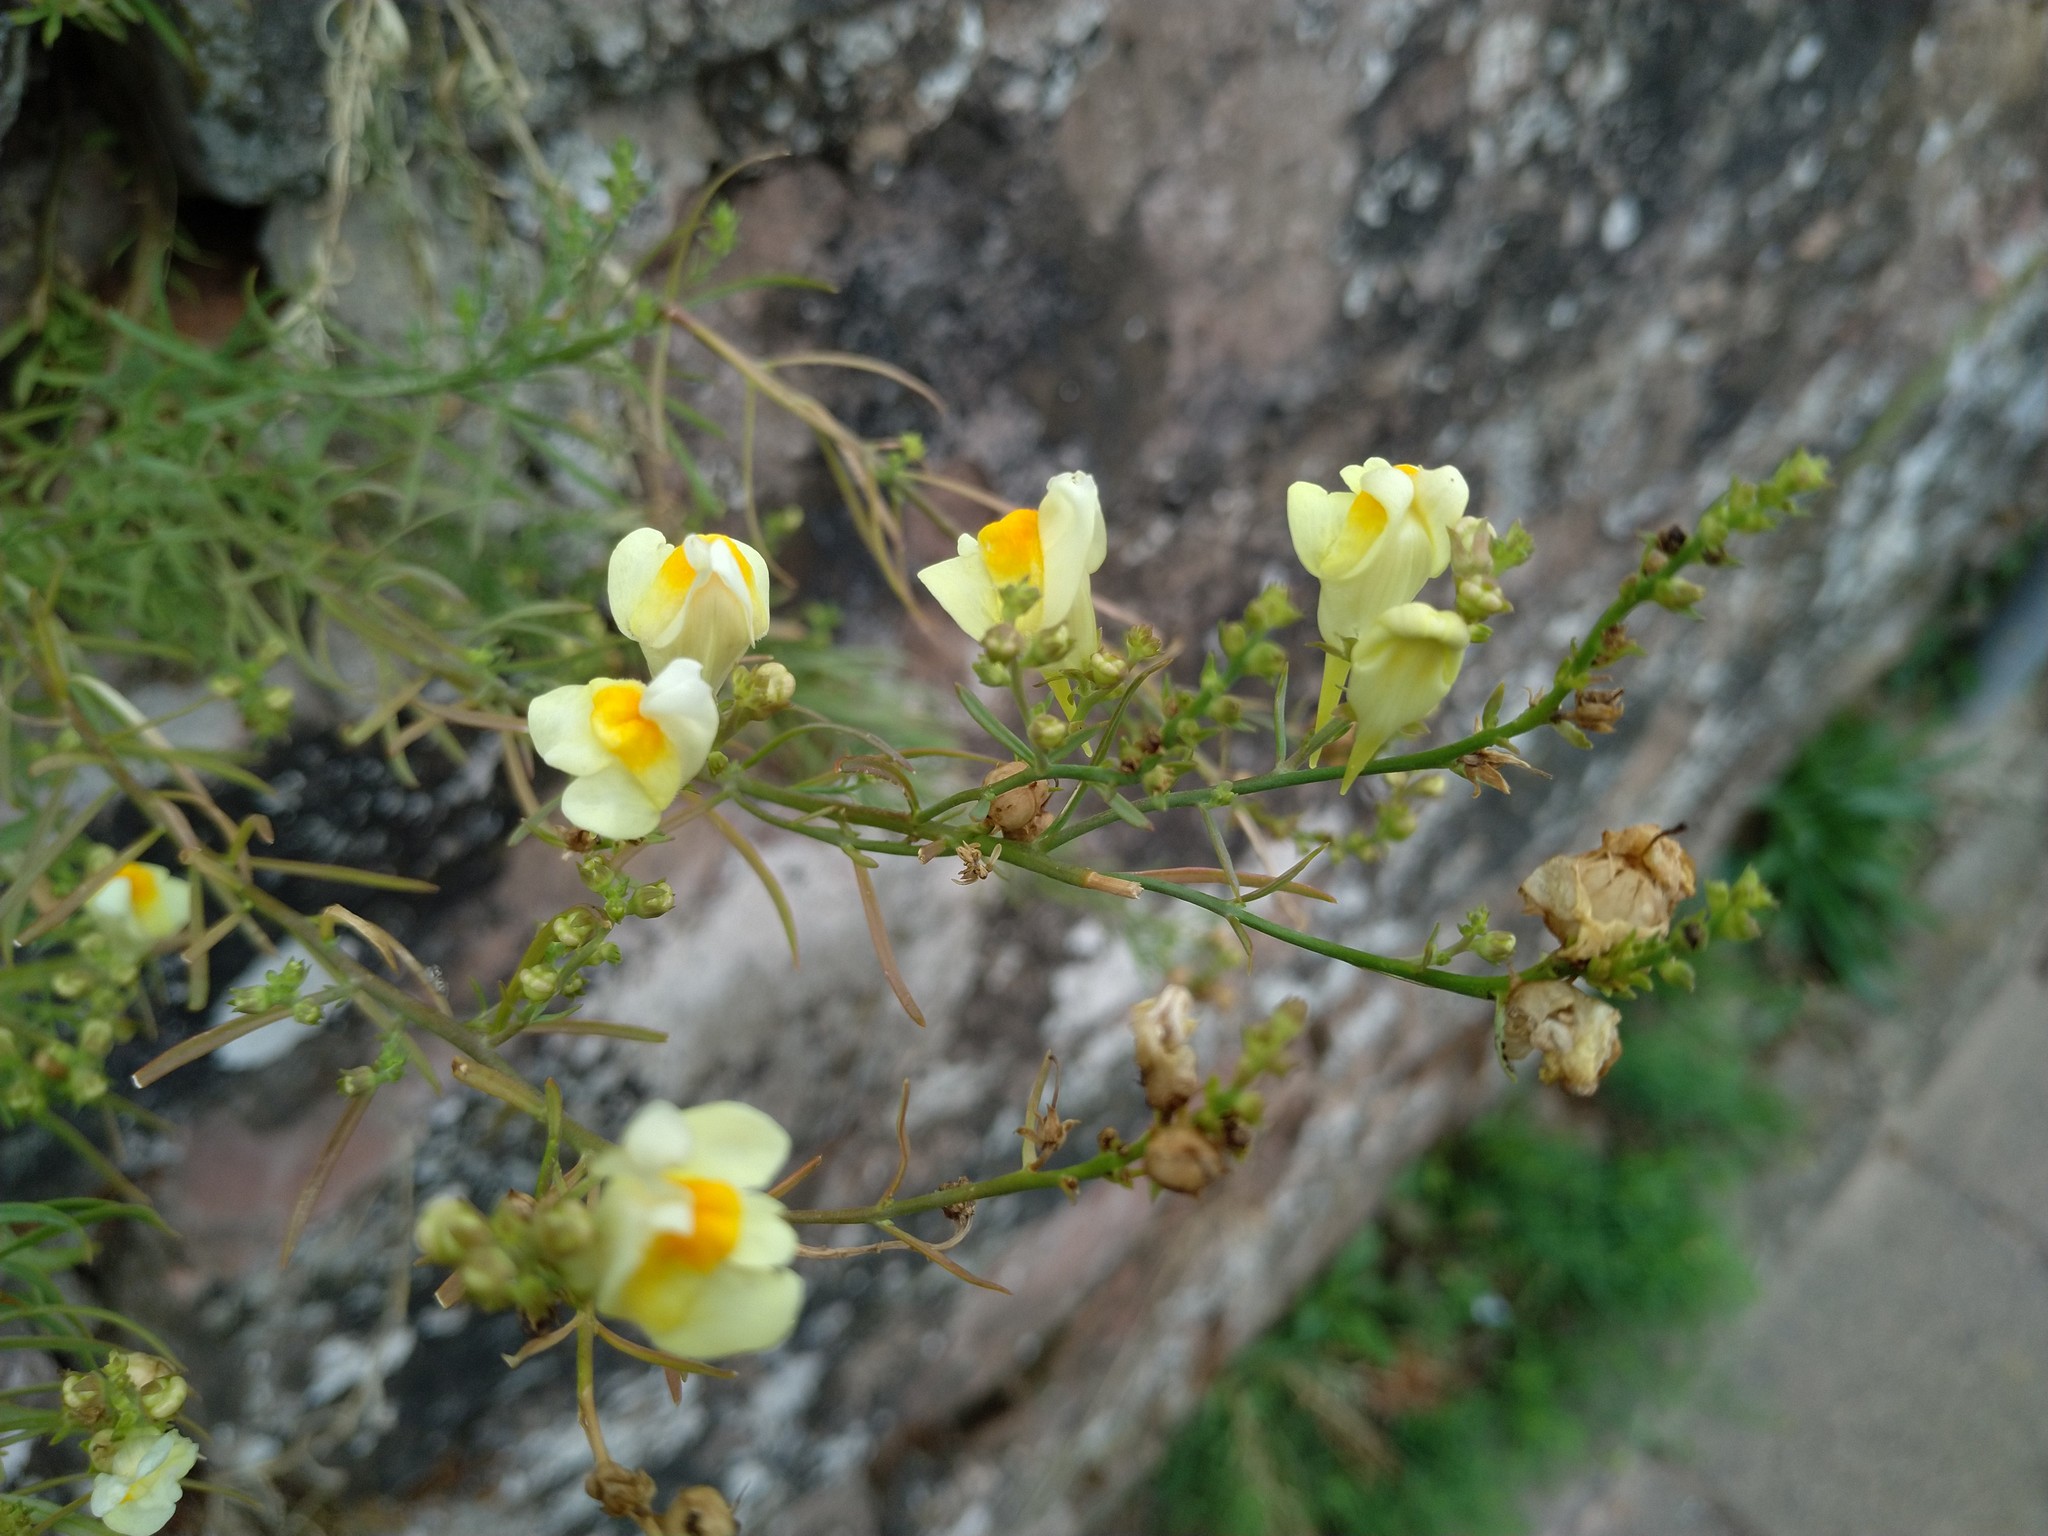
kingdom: Plantae
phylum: Tracheophyta
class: Magnoliopsida
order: Lamiales
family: Plantaginaceae
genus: Linaria
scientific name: Linaria vulgaris
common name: Butter and eggs
